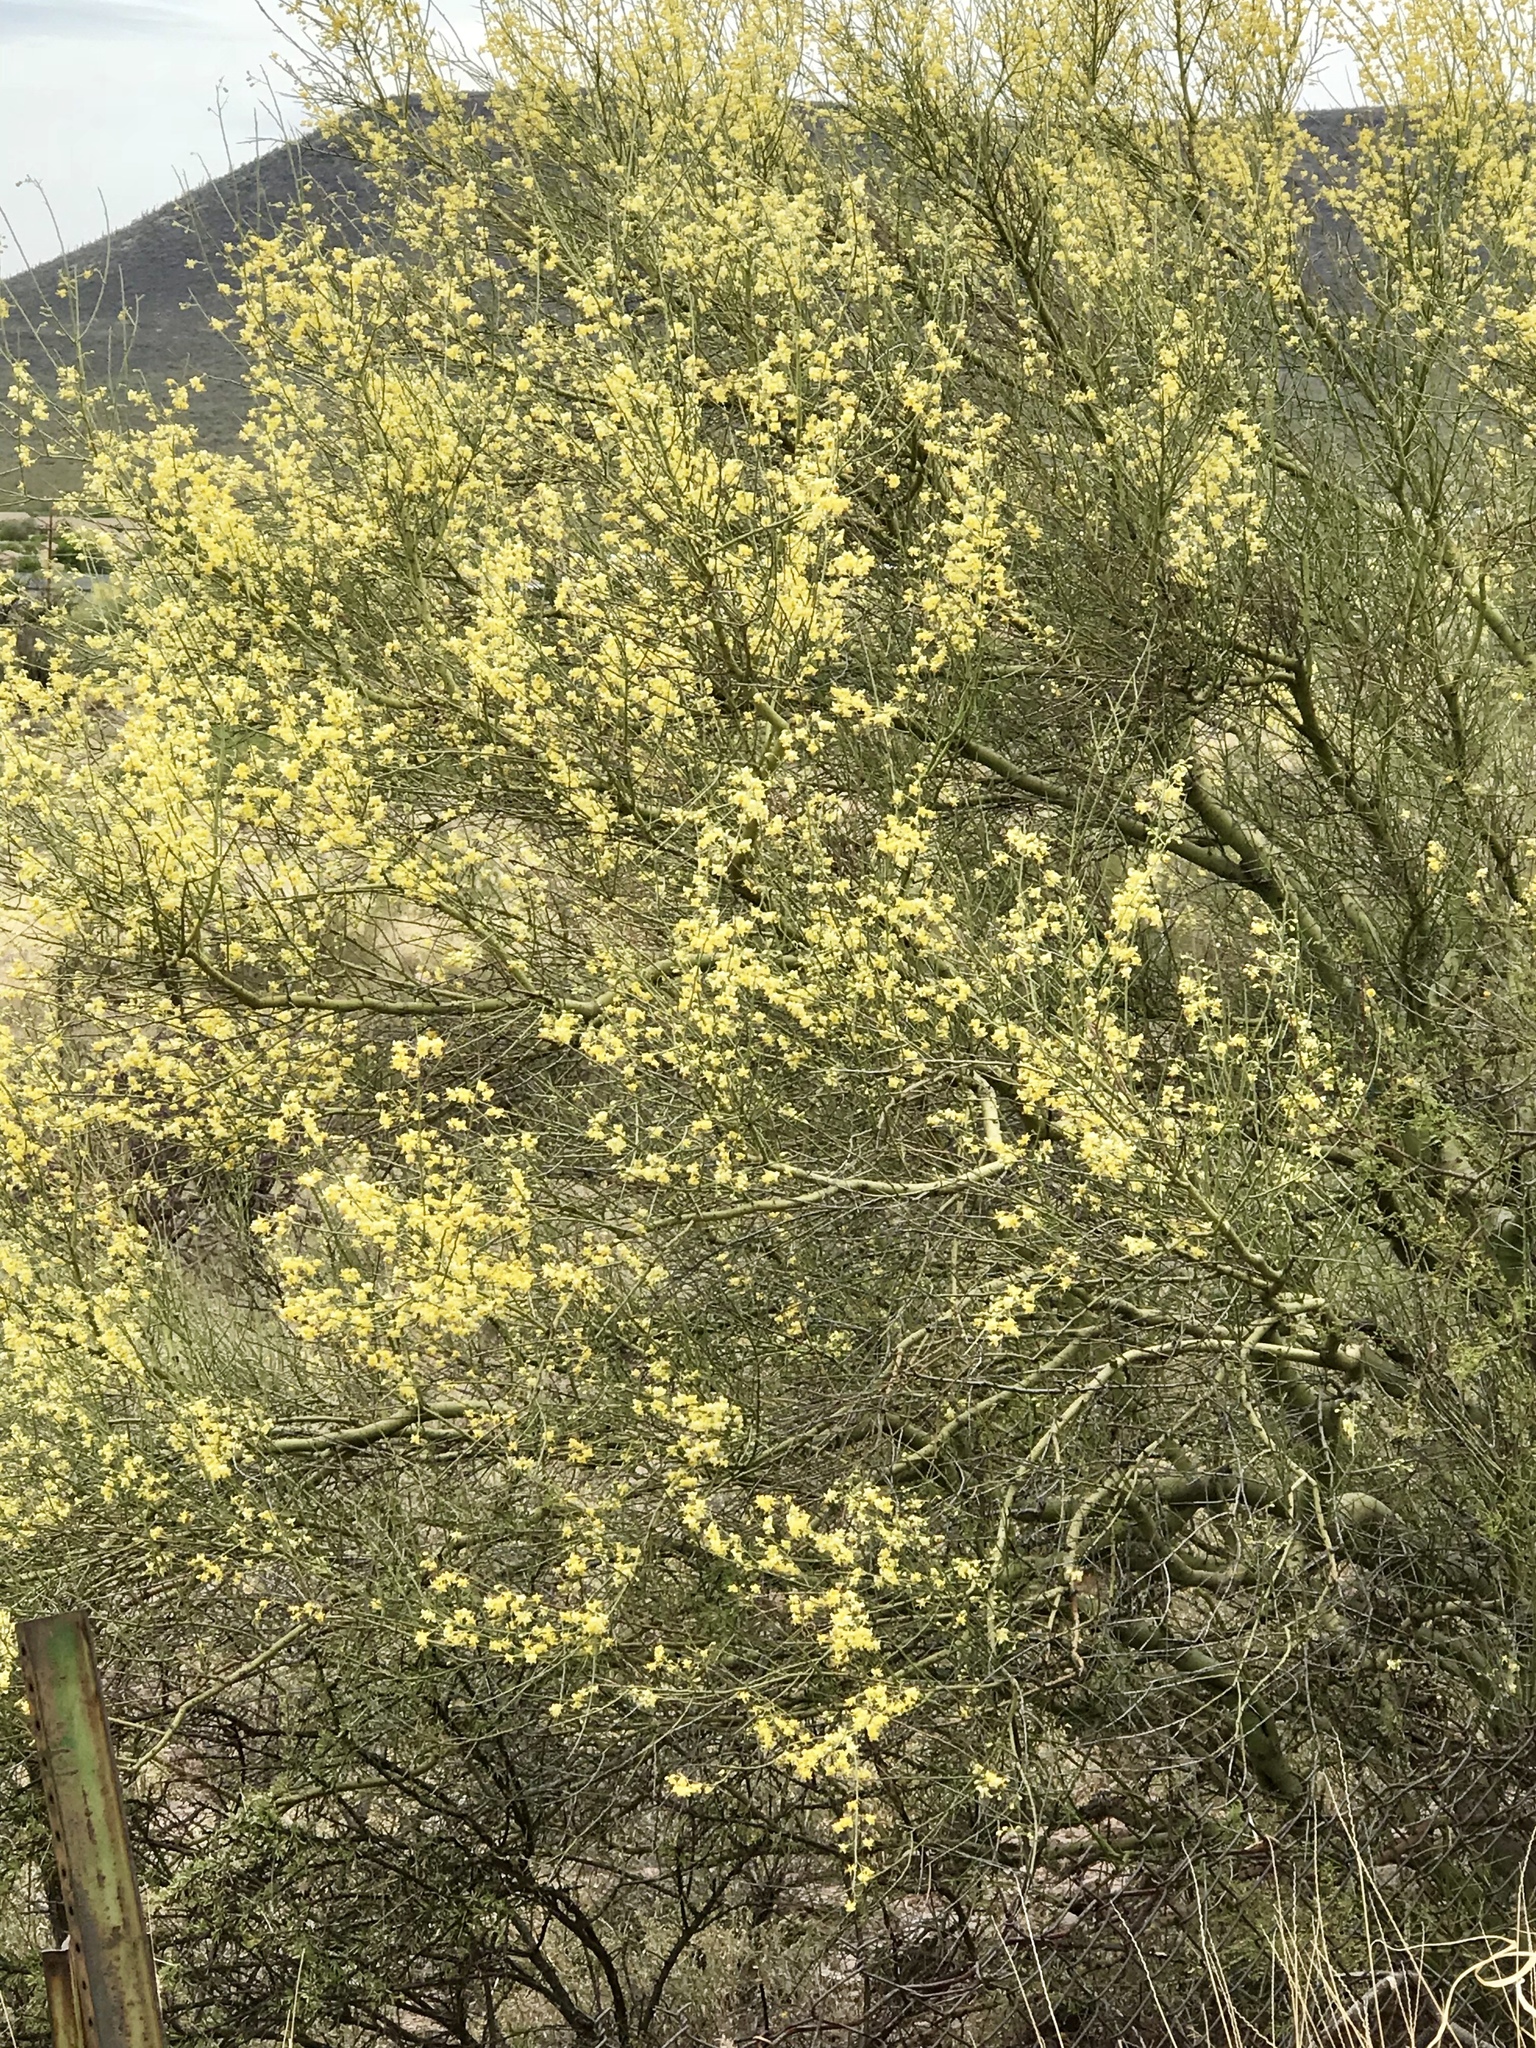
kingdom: Plantae
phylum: Tracheophyta
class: Magnoliopsida
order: Fabales
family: Fabaceae
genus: Parkinsonia
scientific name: Parkinsonia microphylla
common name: Yellow paloverde
